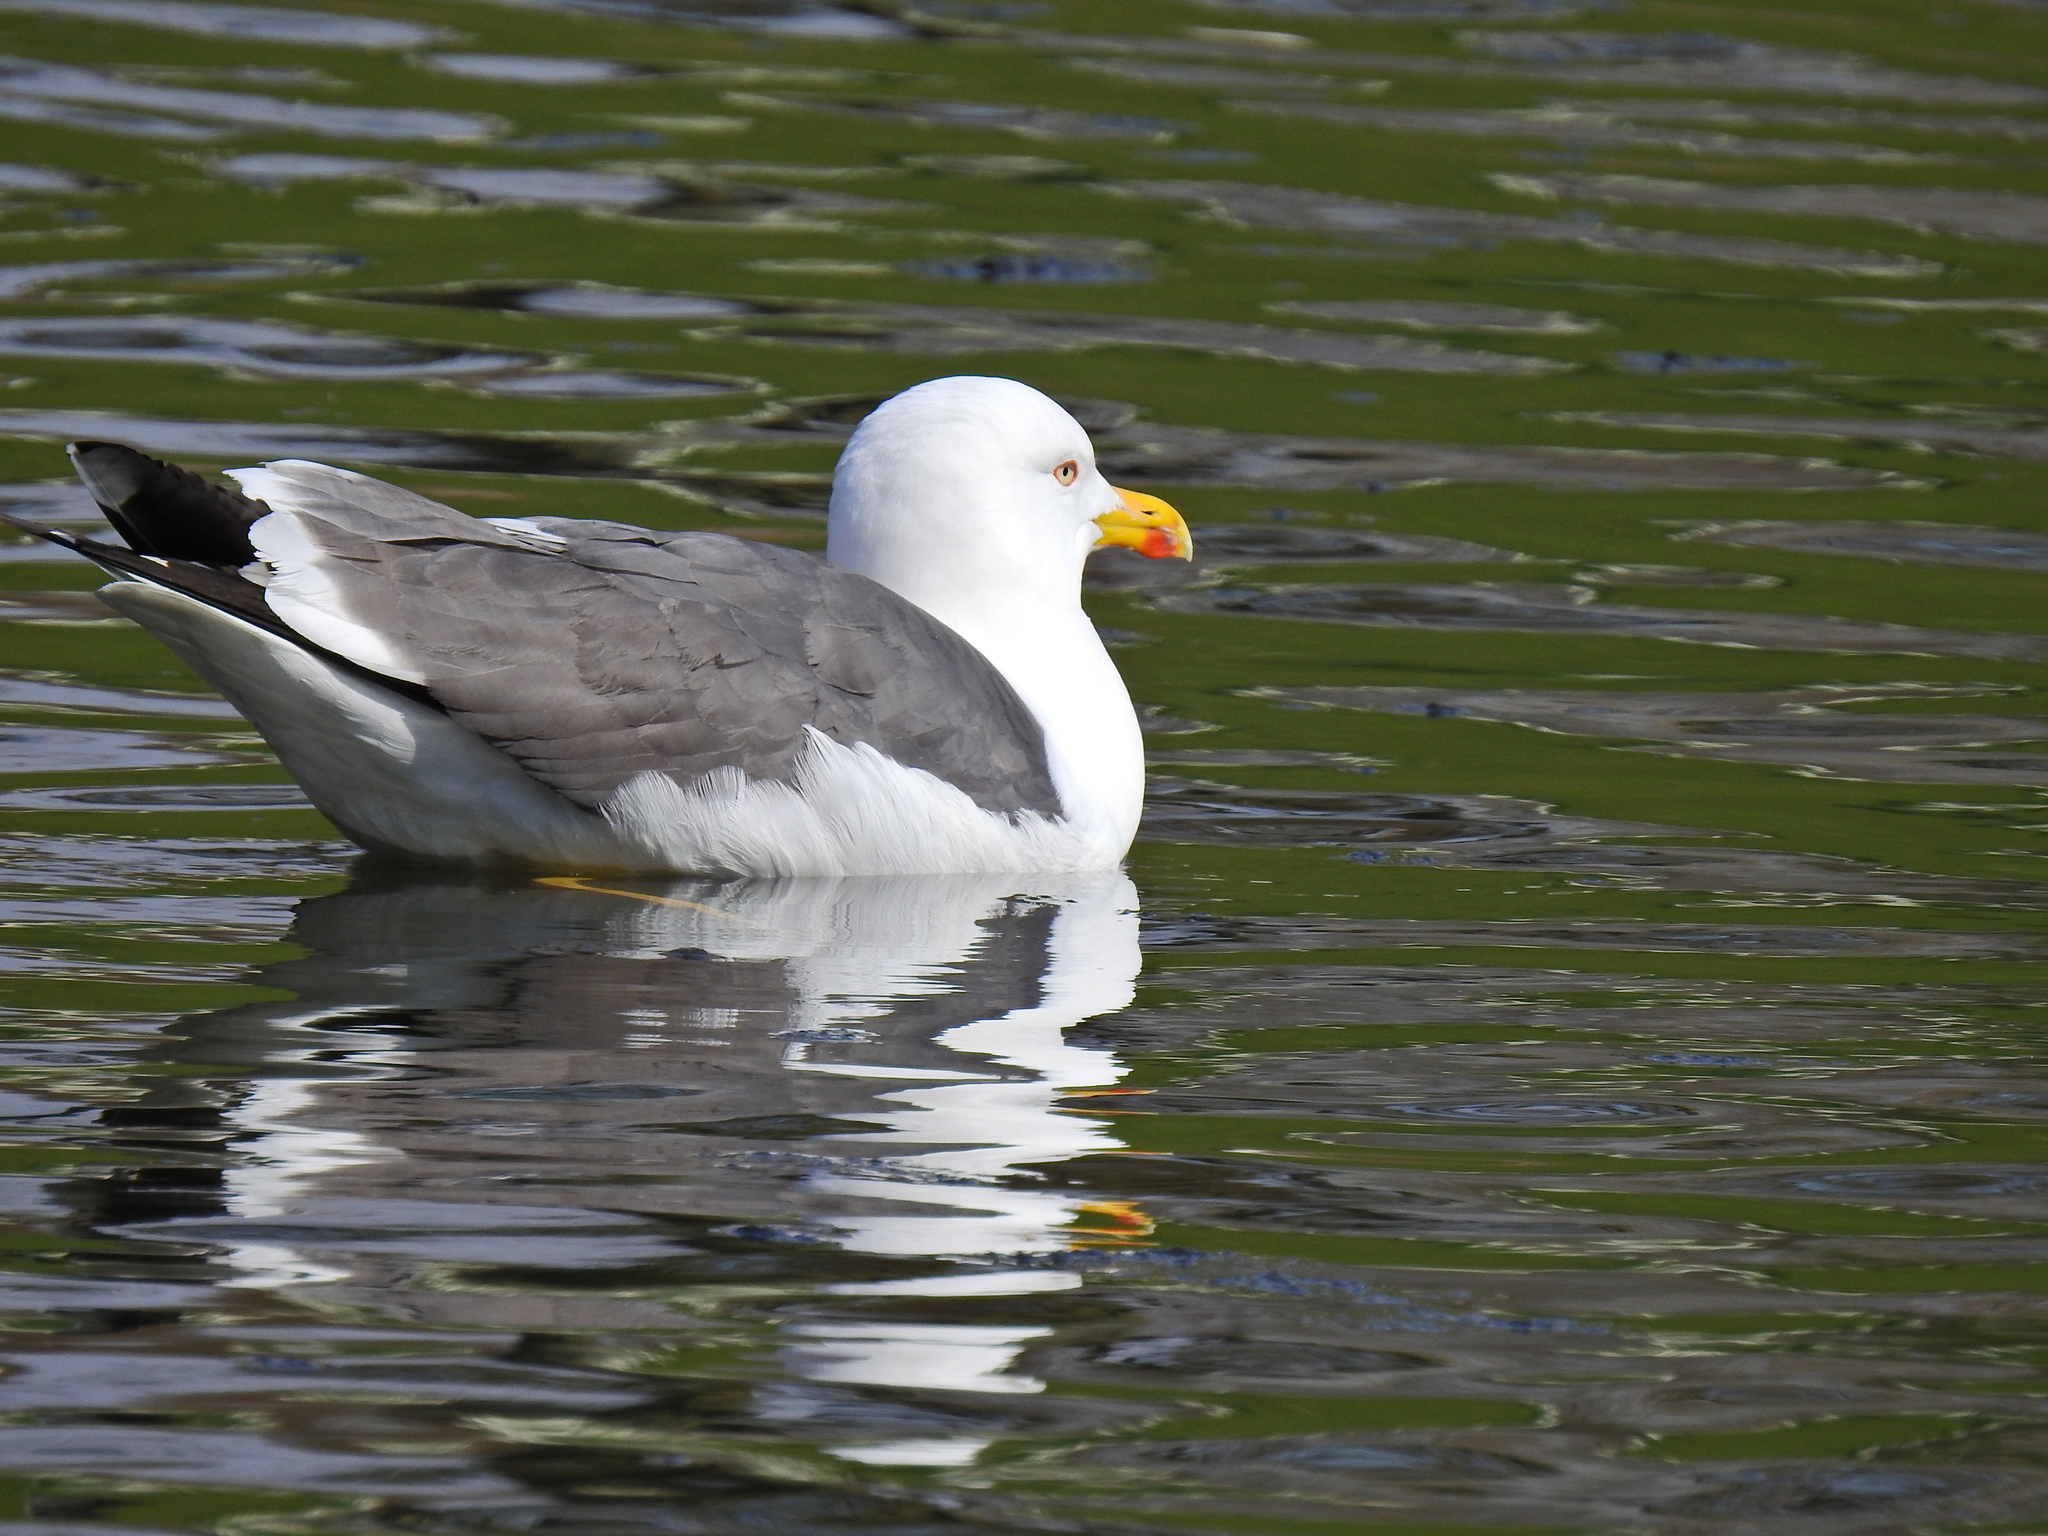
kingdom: Animalia
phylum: Chordata
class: Aves
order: Charadriiformes
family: Laridae
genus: Larus
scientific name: Larus fuscus
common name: Lesser black-backed gull
